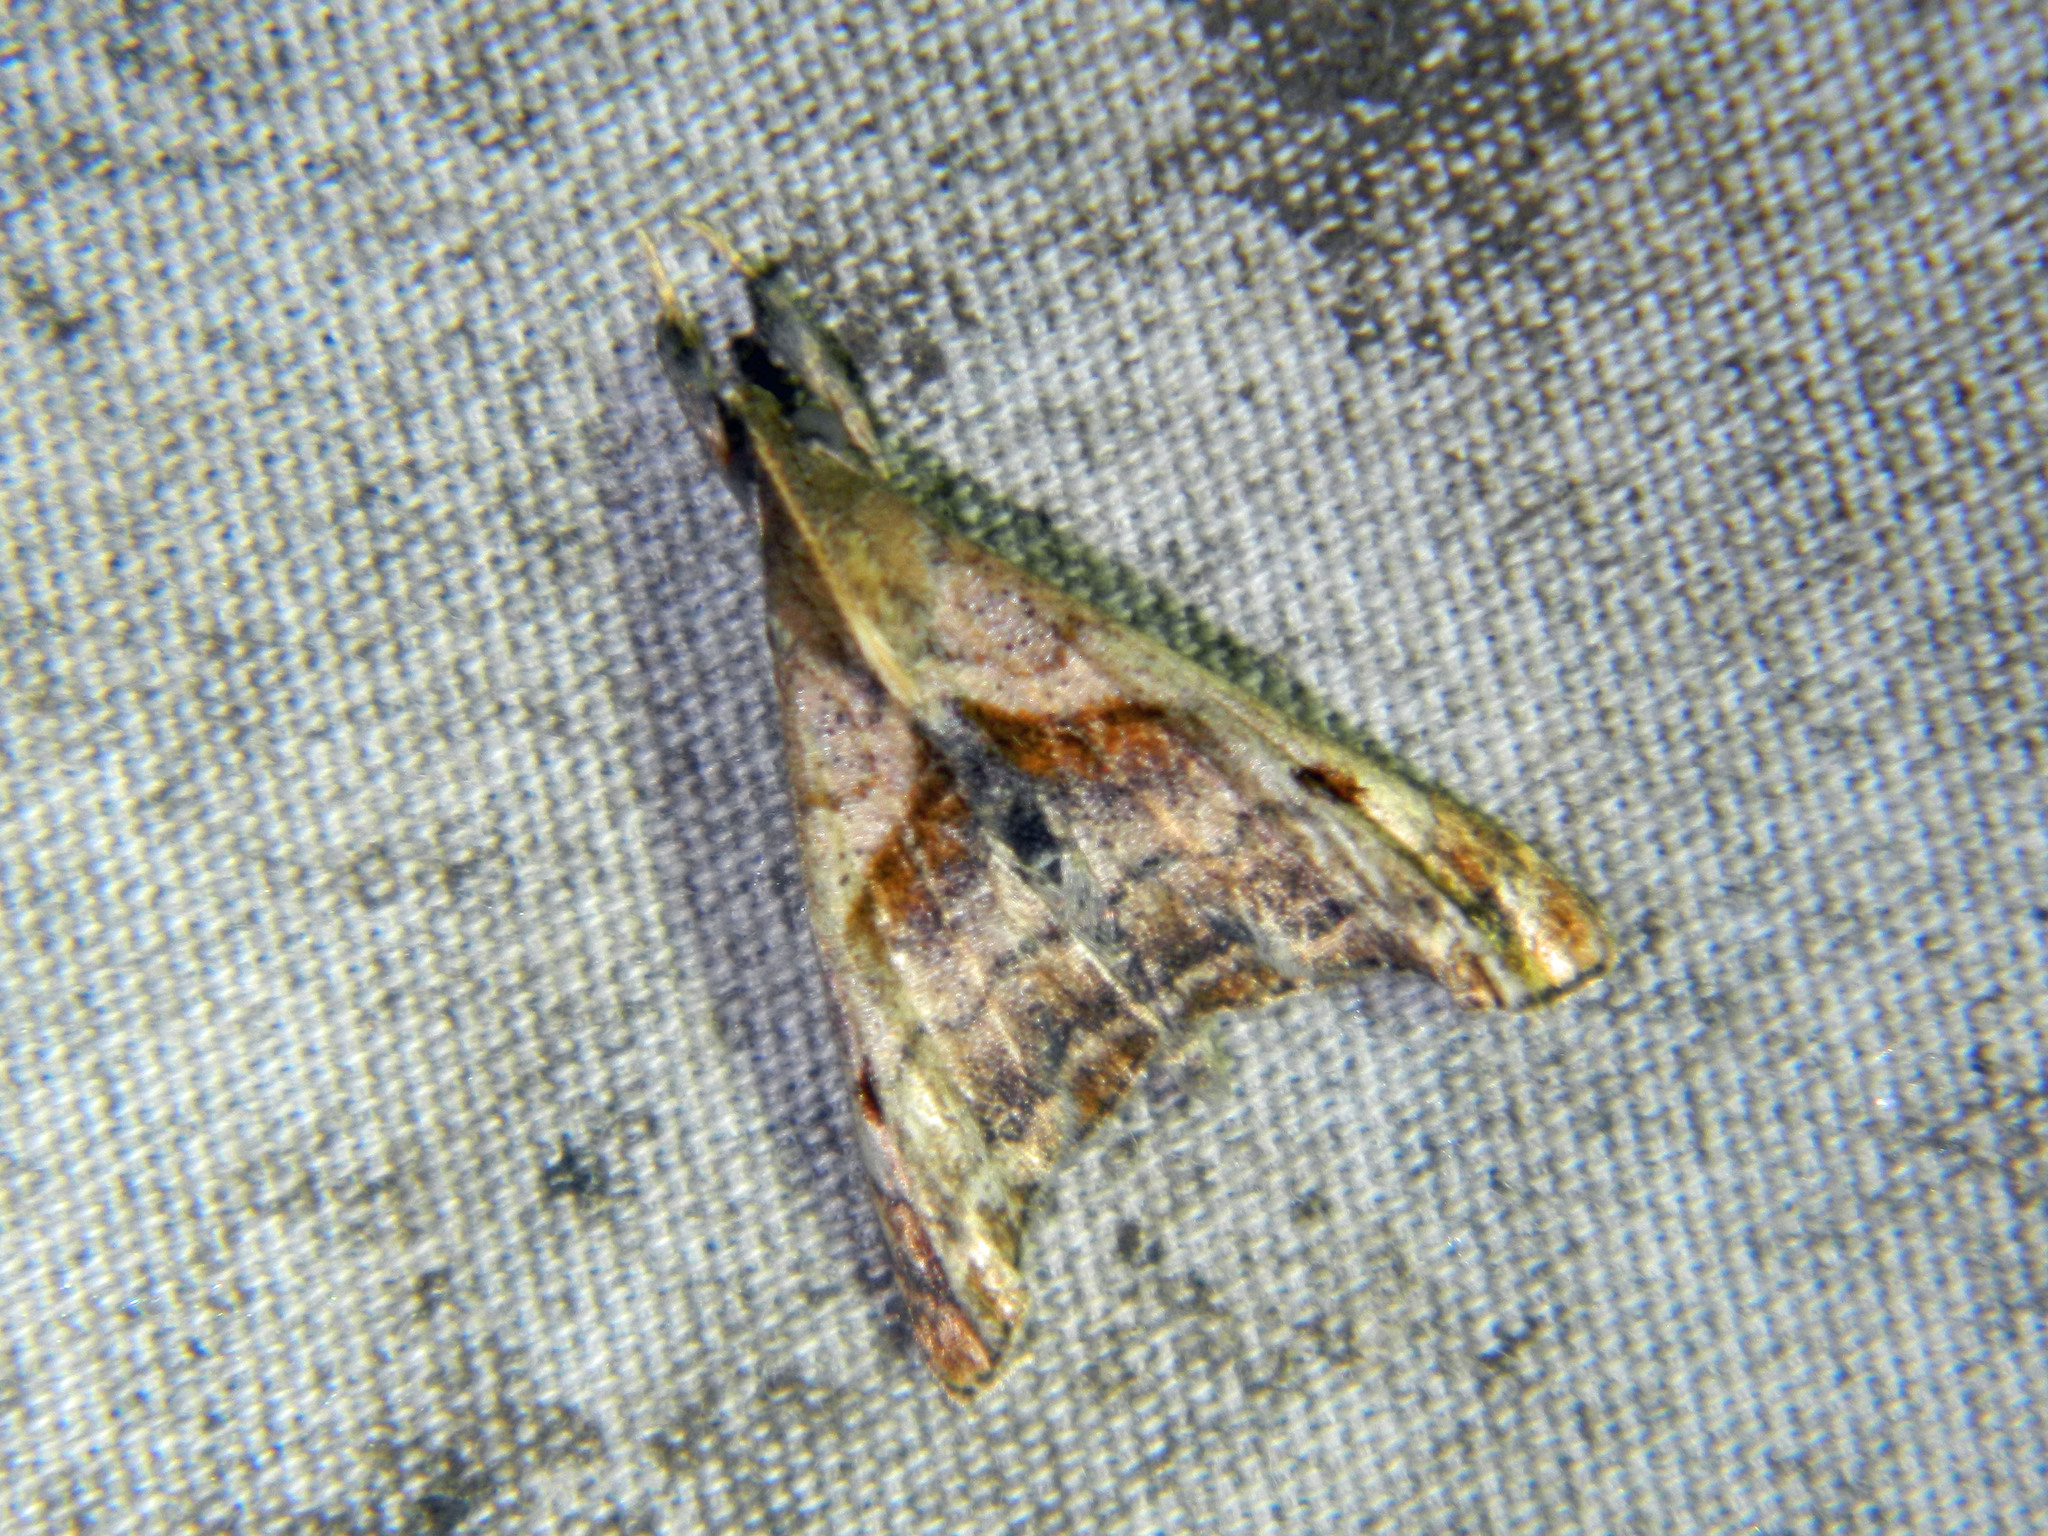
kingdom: Animalia
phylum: Arthropoda
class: Insecta
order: Lepidoptera
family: Erebidae
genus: Palthis
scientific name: Palthis angulalis
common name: Dark-spotted palthis moth
